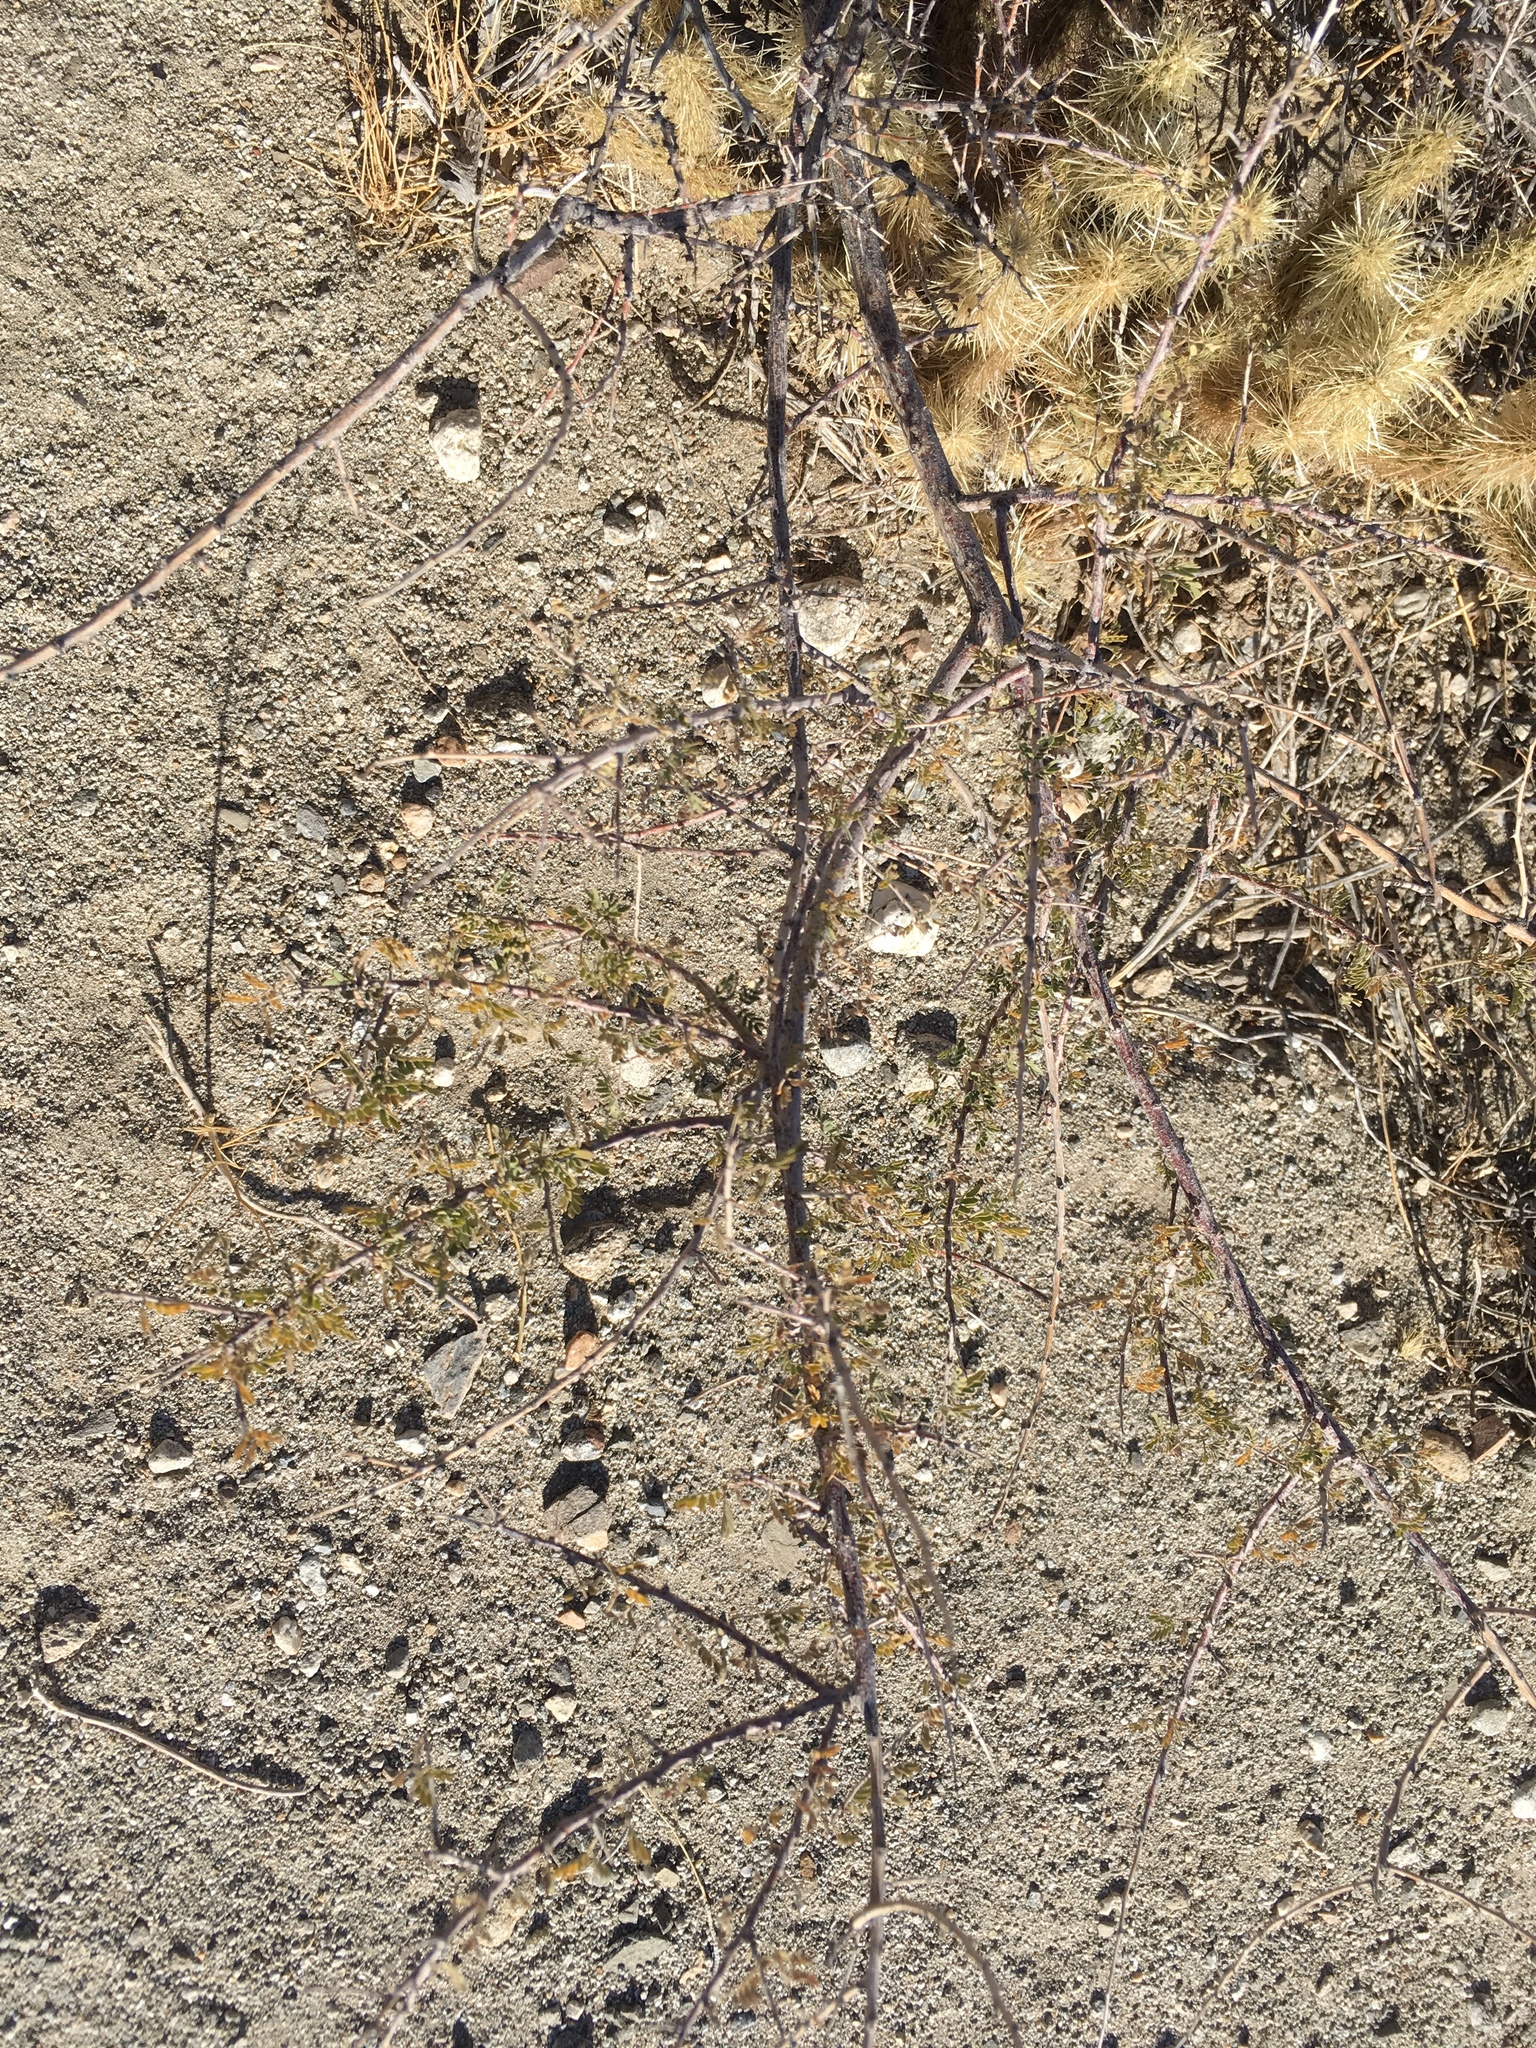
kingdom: Plantae
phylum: Tracheophyta
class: Magnoliopsida
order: Fabales
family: Fabaceae
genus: Senegalia
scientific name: Senegalia greggii
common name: Texas-mimosa
